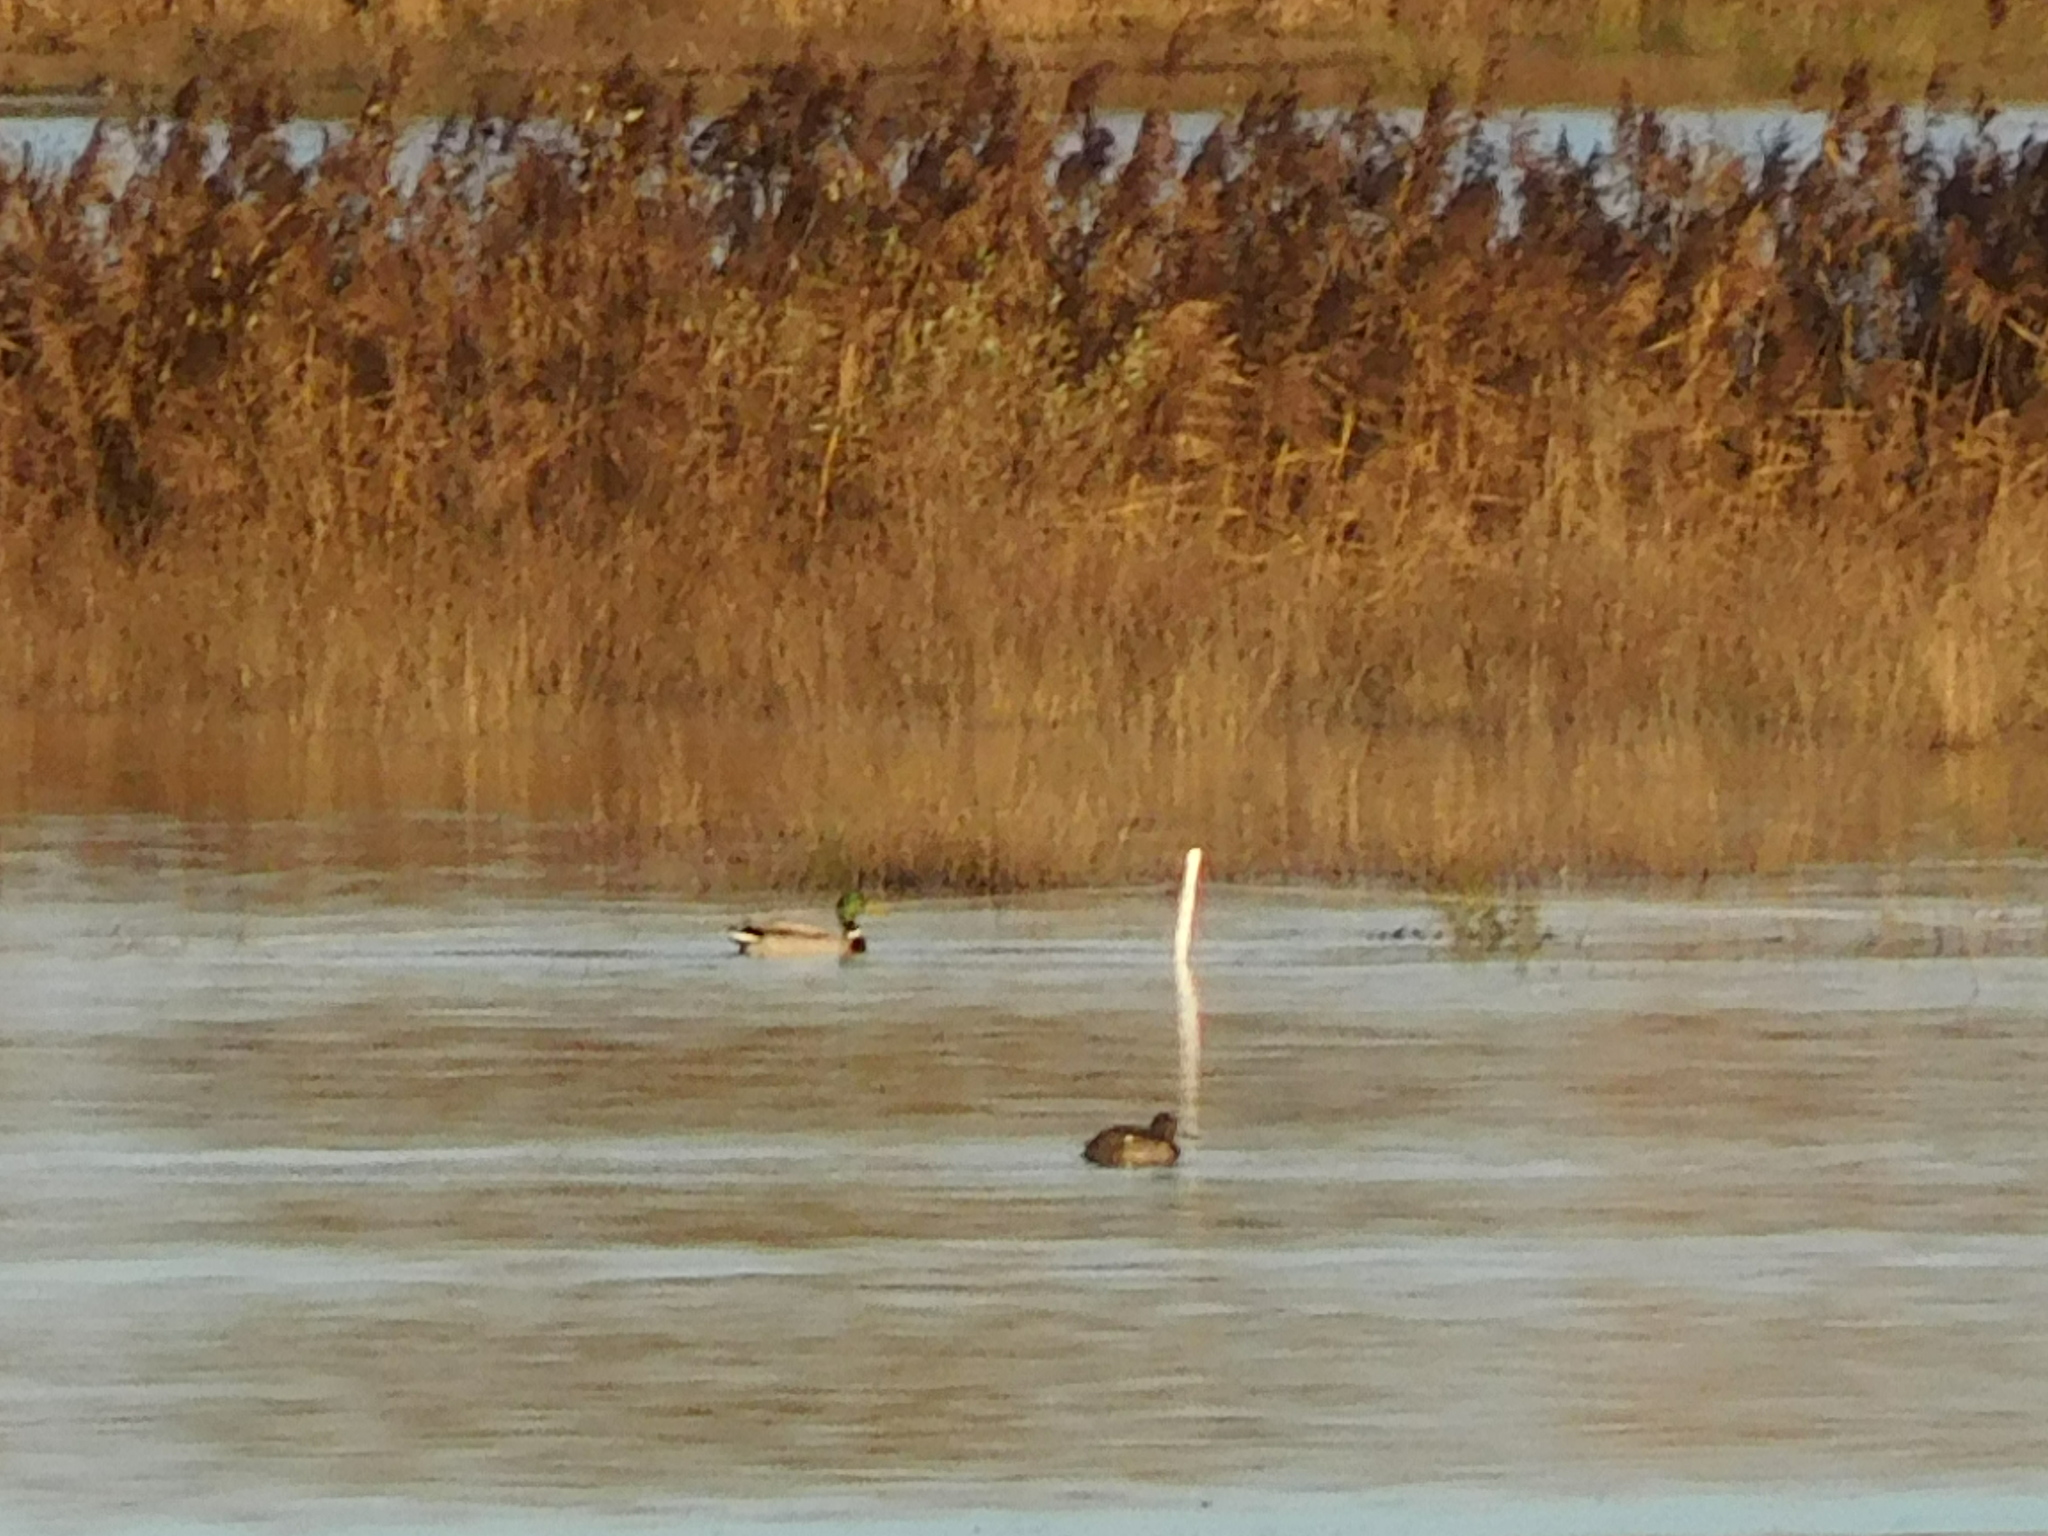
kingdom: Animalia
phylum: Chordata
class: Aves
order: Anseriformes
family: Anatidae
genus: Anas
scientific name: Anas platyrhynchos
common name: Mallard
